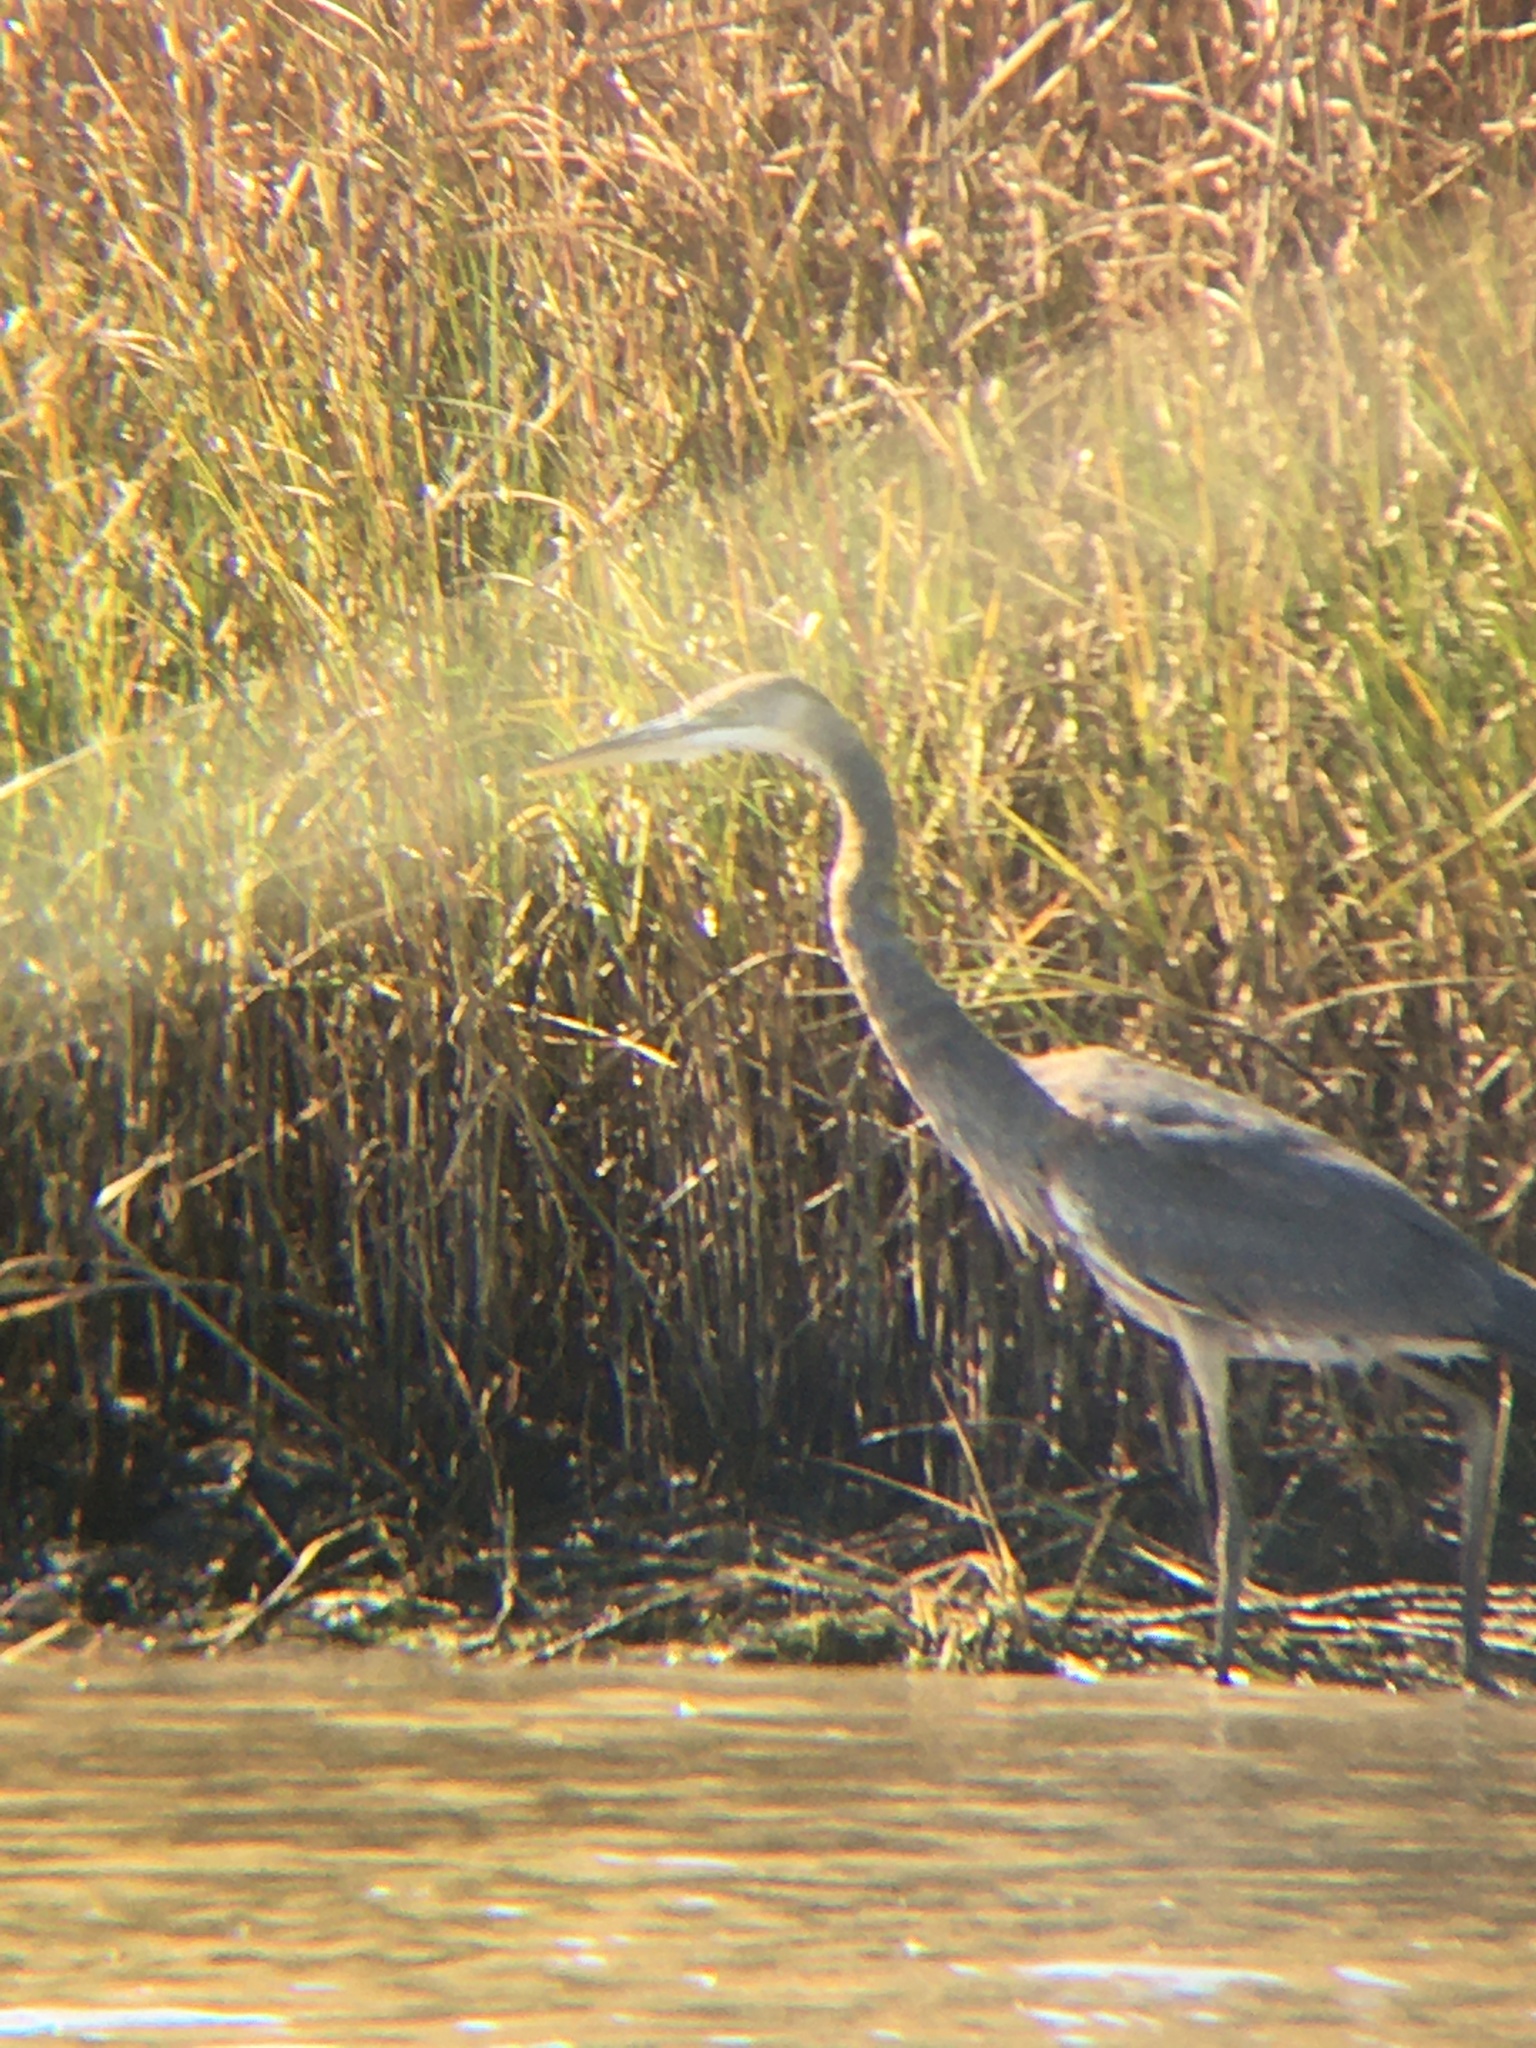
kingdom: Animalia
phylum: Chordata
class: Aves
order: Pelecaniformes
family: Ardeidae
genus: Ardea
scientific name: Ardea herodias
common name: Great blue heron
